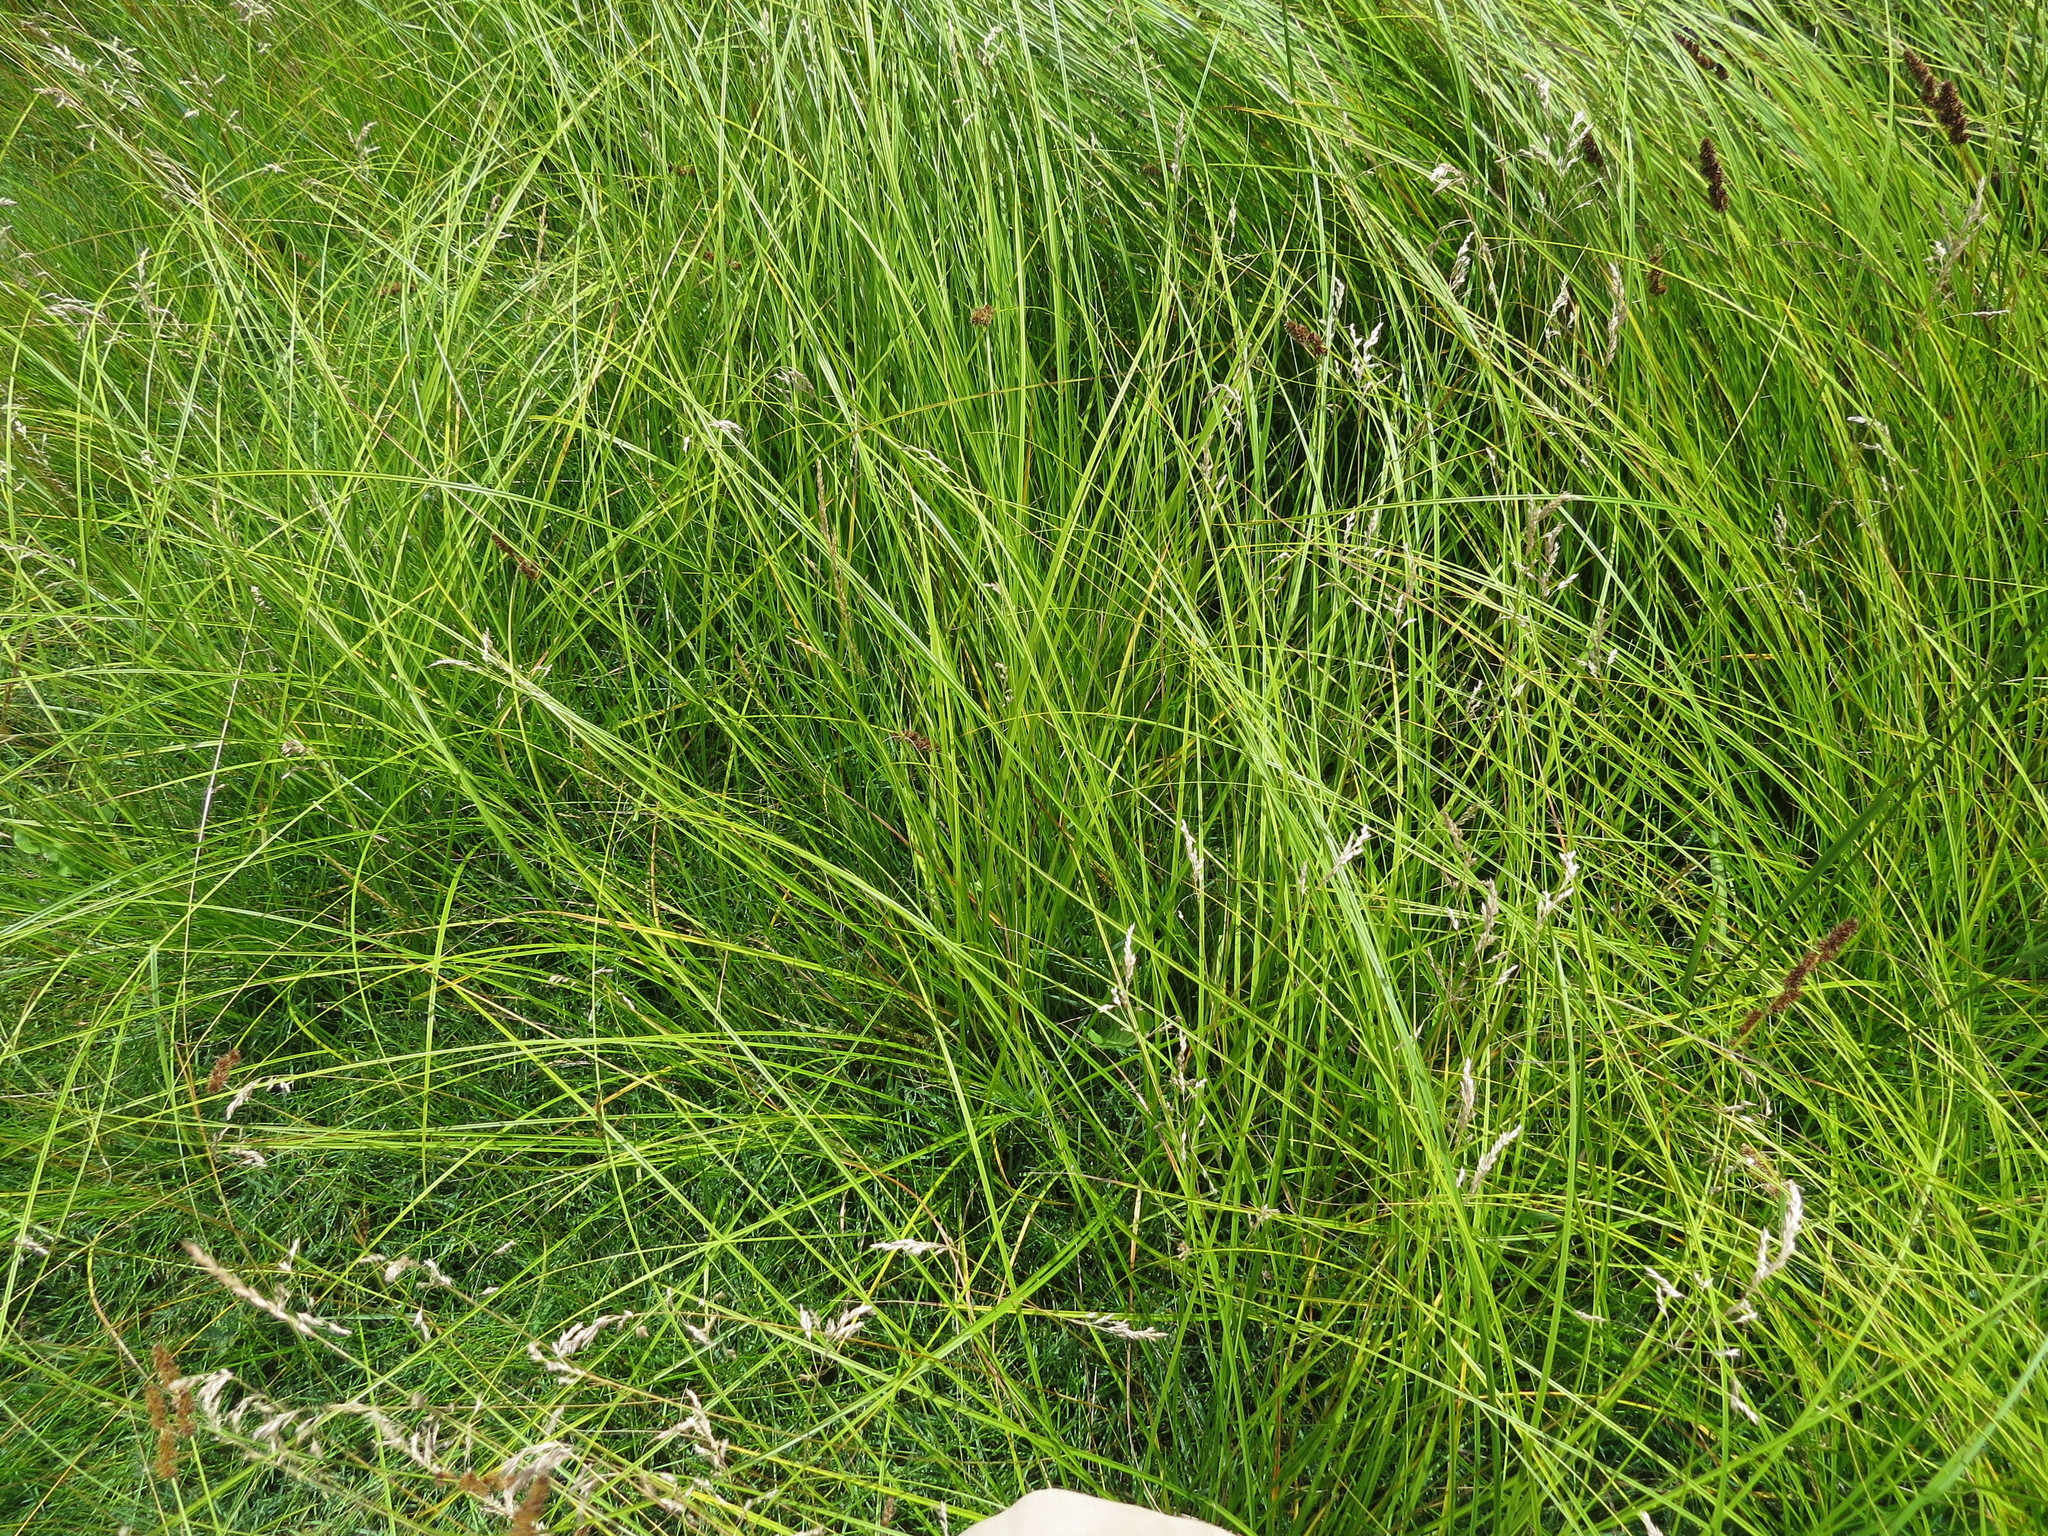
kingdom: Plantae
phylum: Tracheophyta
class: Liliopsida
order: Poales
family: Cyperaceae
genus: Carex
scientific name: Carex vulpinoidea
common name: American fox-sedge
